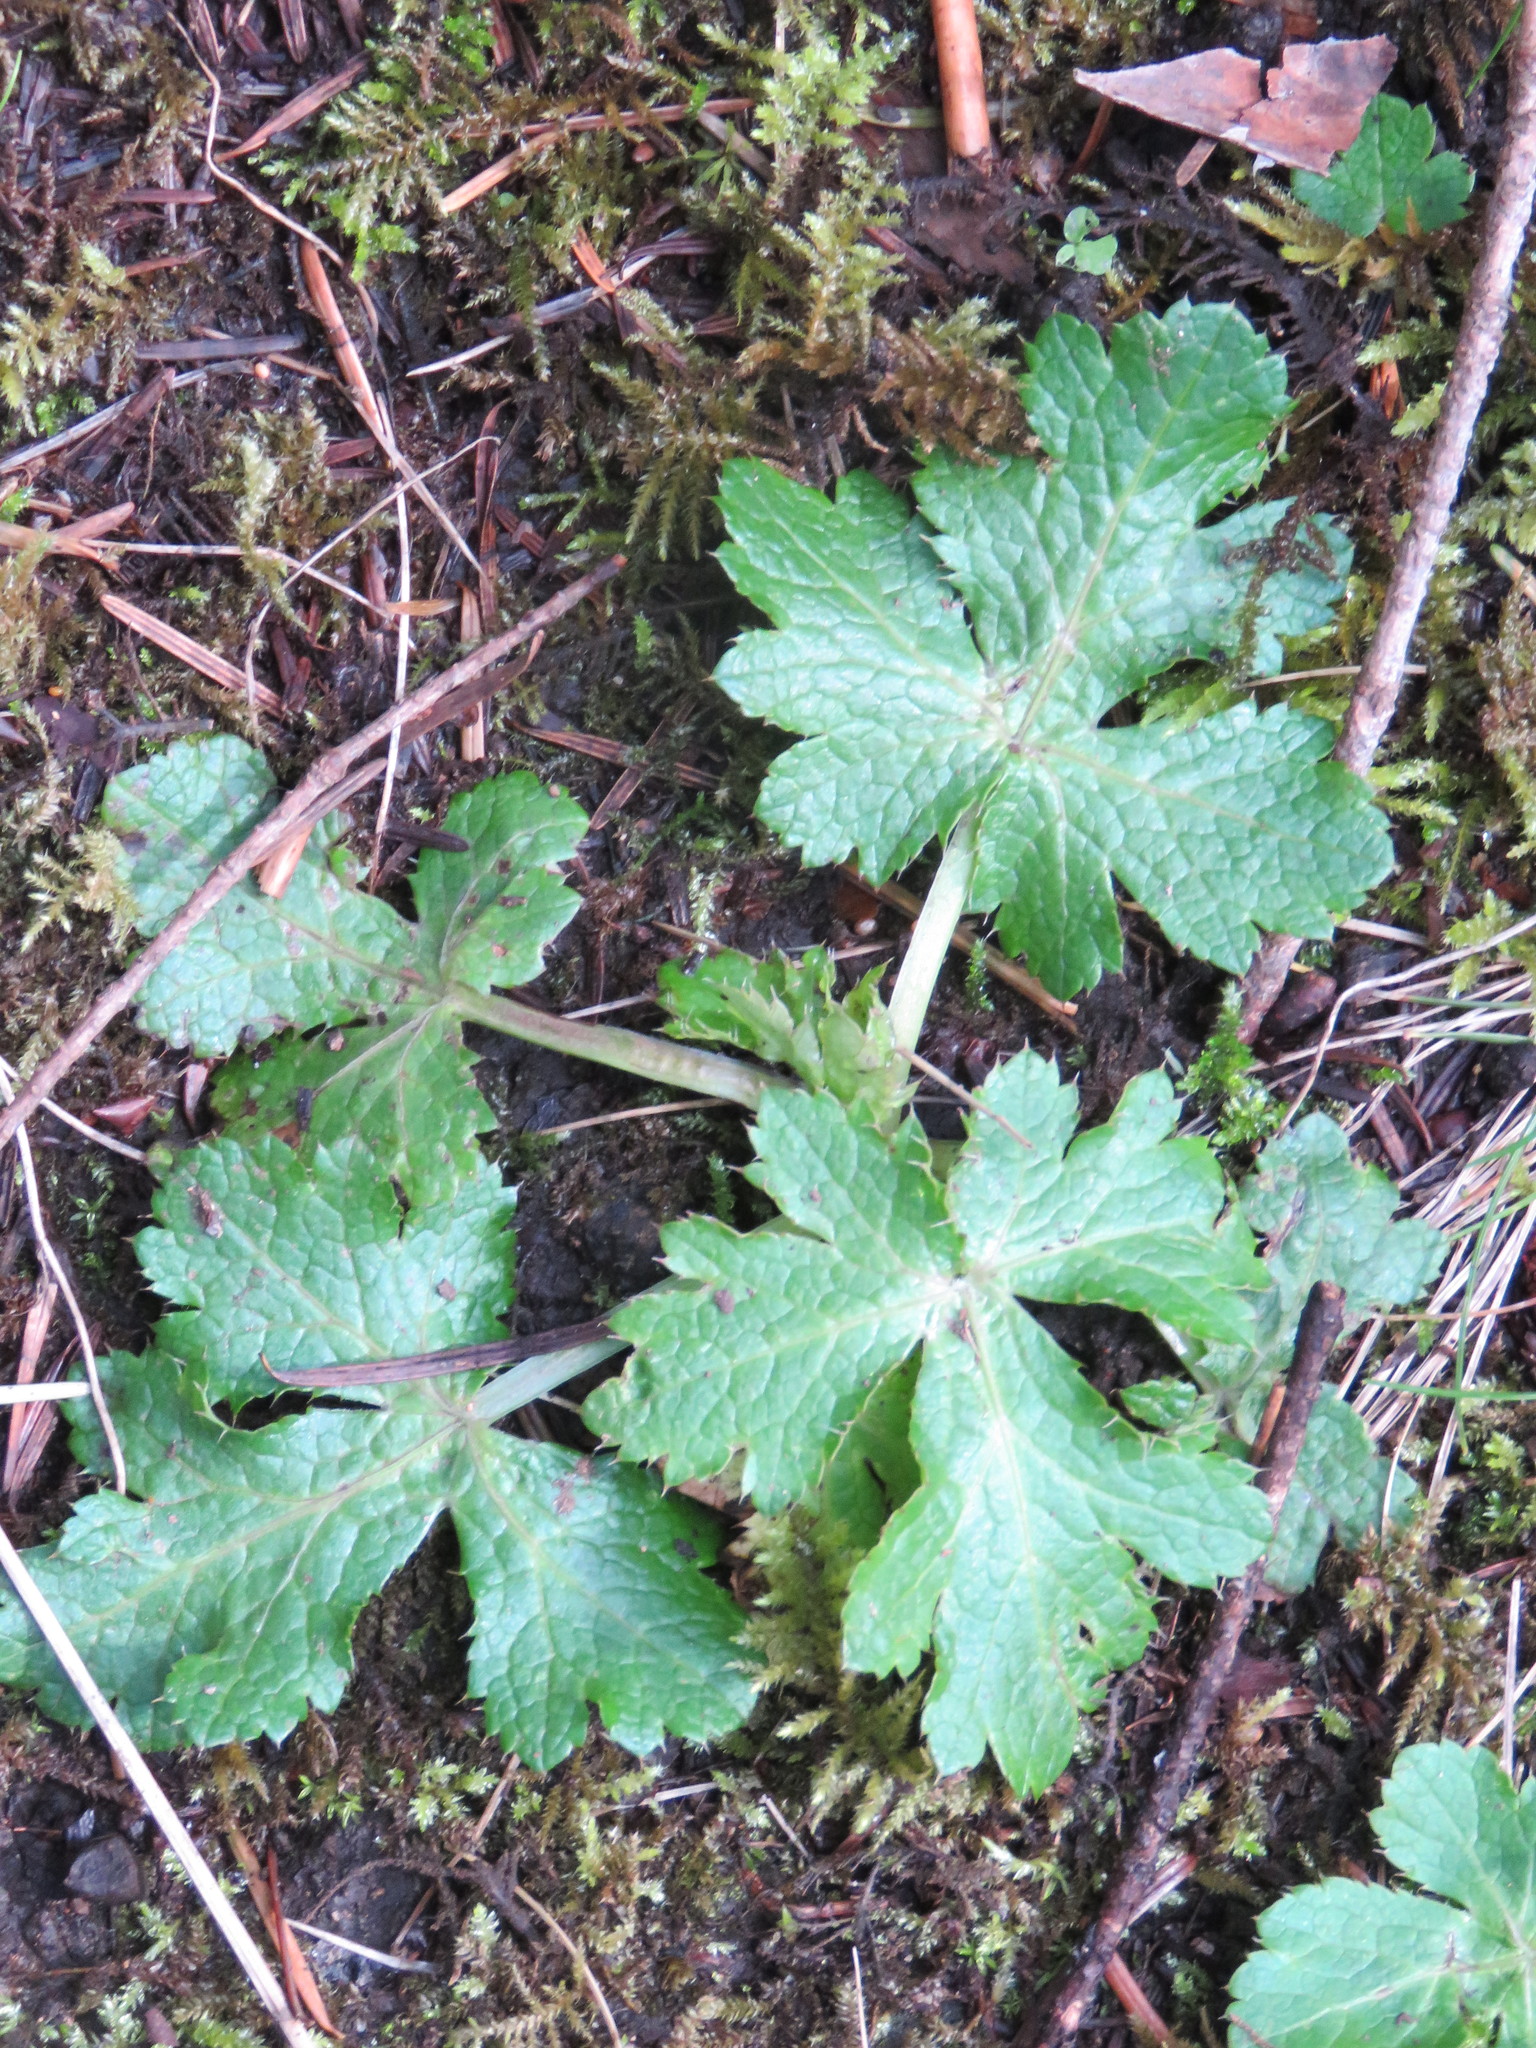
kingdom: Plantae
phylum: Tracheophyta
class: Magnoliopsida
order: Apiales
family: Apiaceae
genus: Sanicula
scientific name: Sanicula crassicaulis
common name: Western snakeroot
